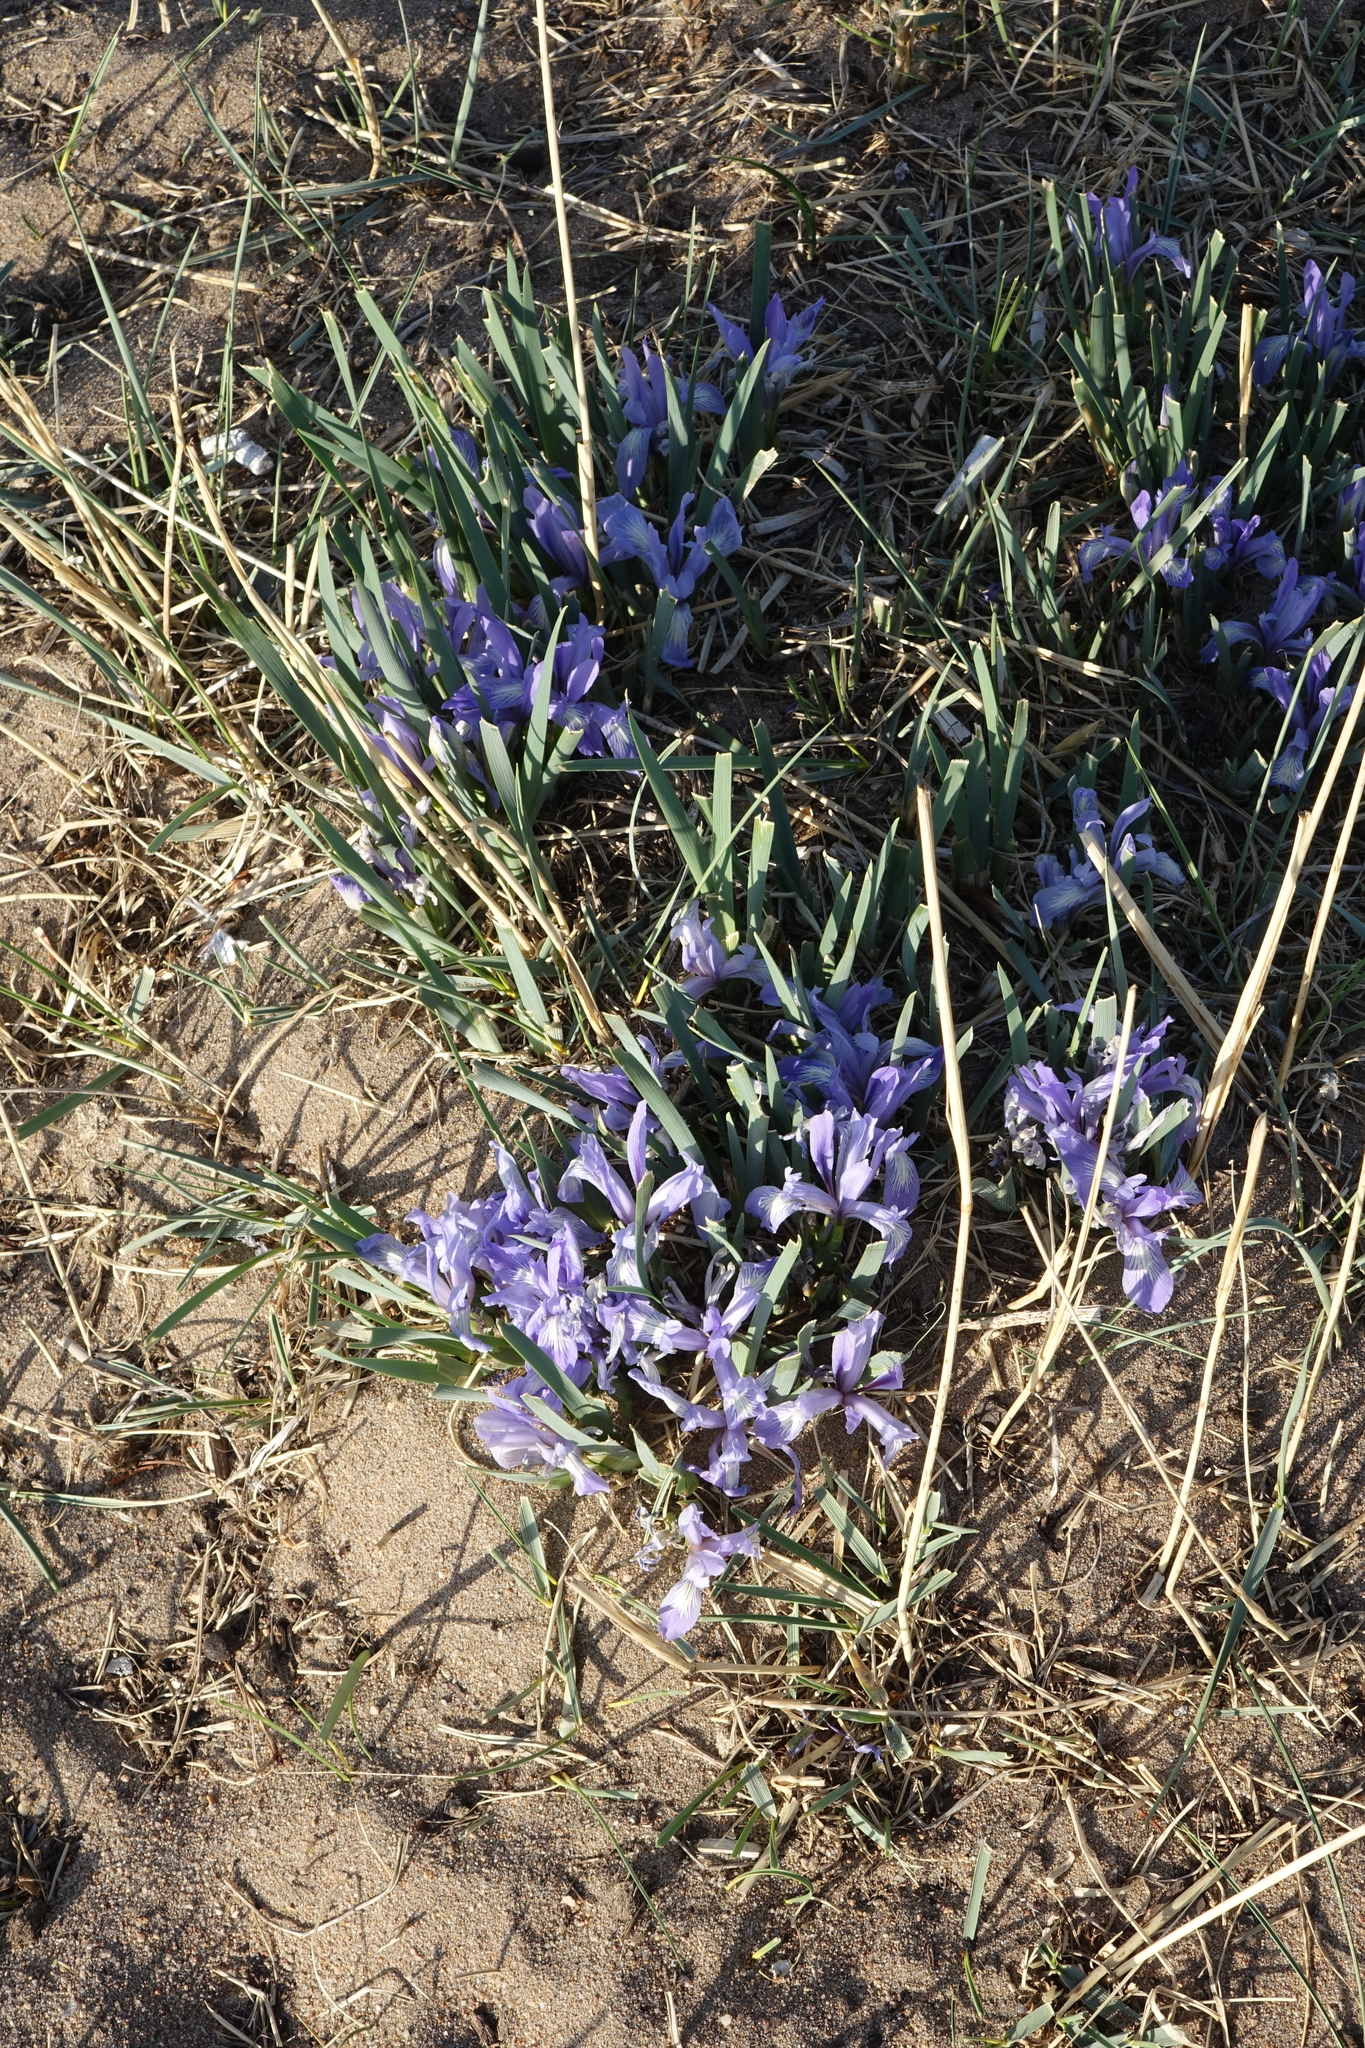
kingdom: Plantae
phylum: Tracheophyta
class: Liliopsida
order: Asparagales
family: Iridaceae
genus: Iris
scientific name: Iris lactea
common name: White-flower chinese iris
